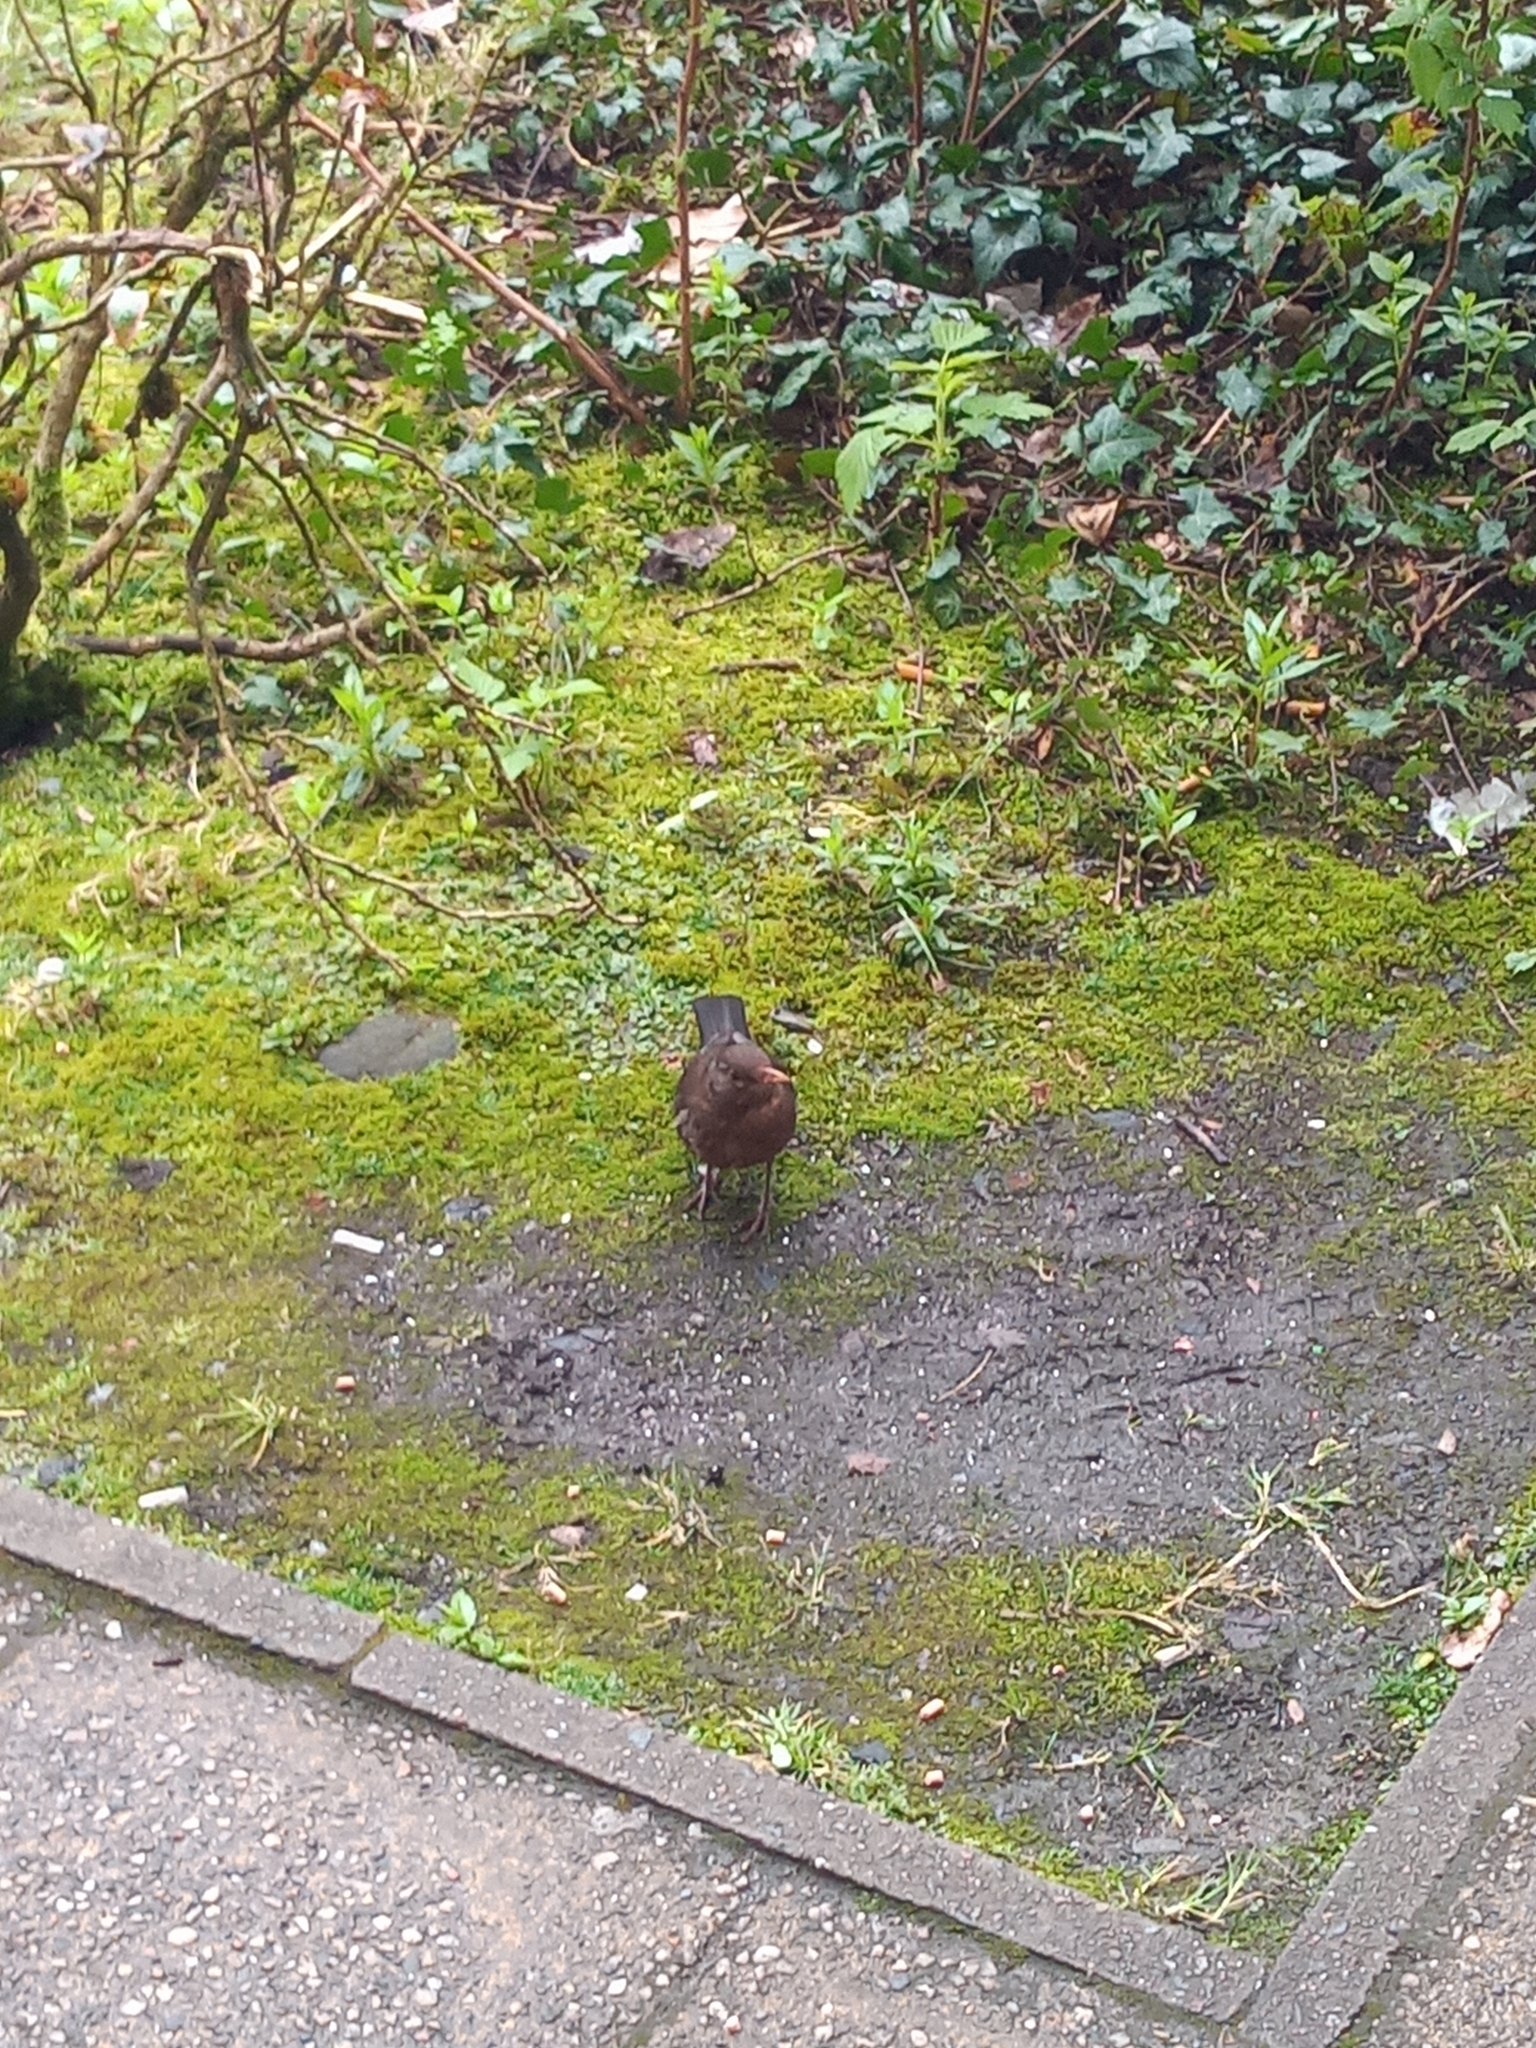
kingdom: Animalia
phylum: Chordata
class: Aves
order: Passeriformes
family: Turdidae
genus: Turdus
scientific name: Turdus merula
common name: Common blackbird
